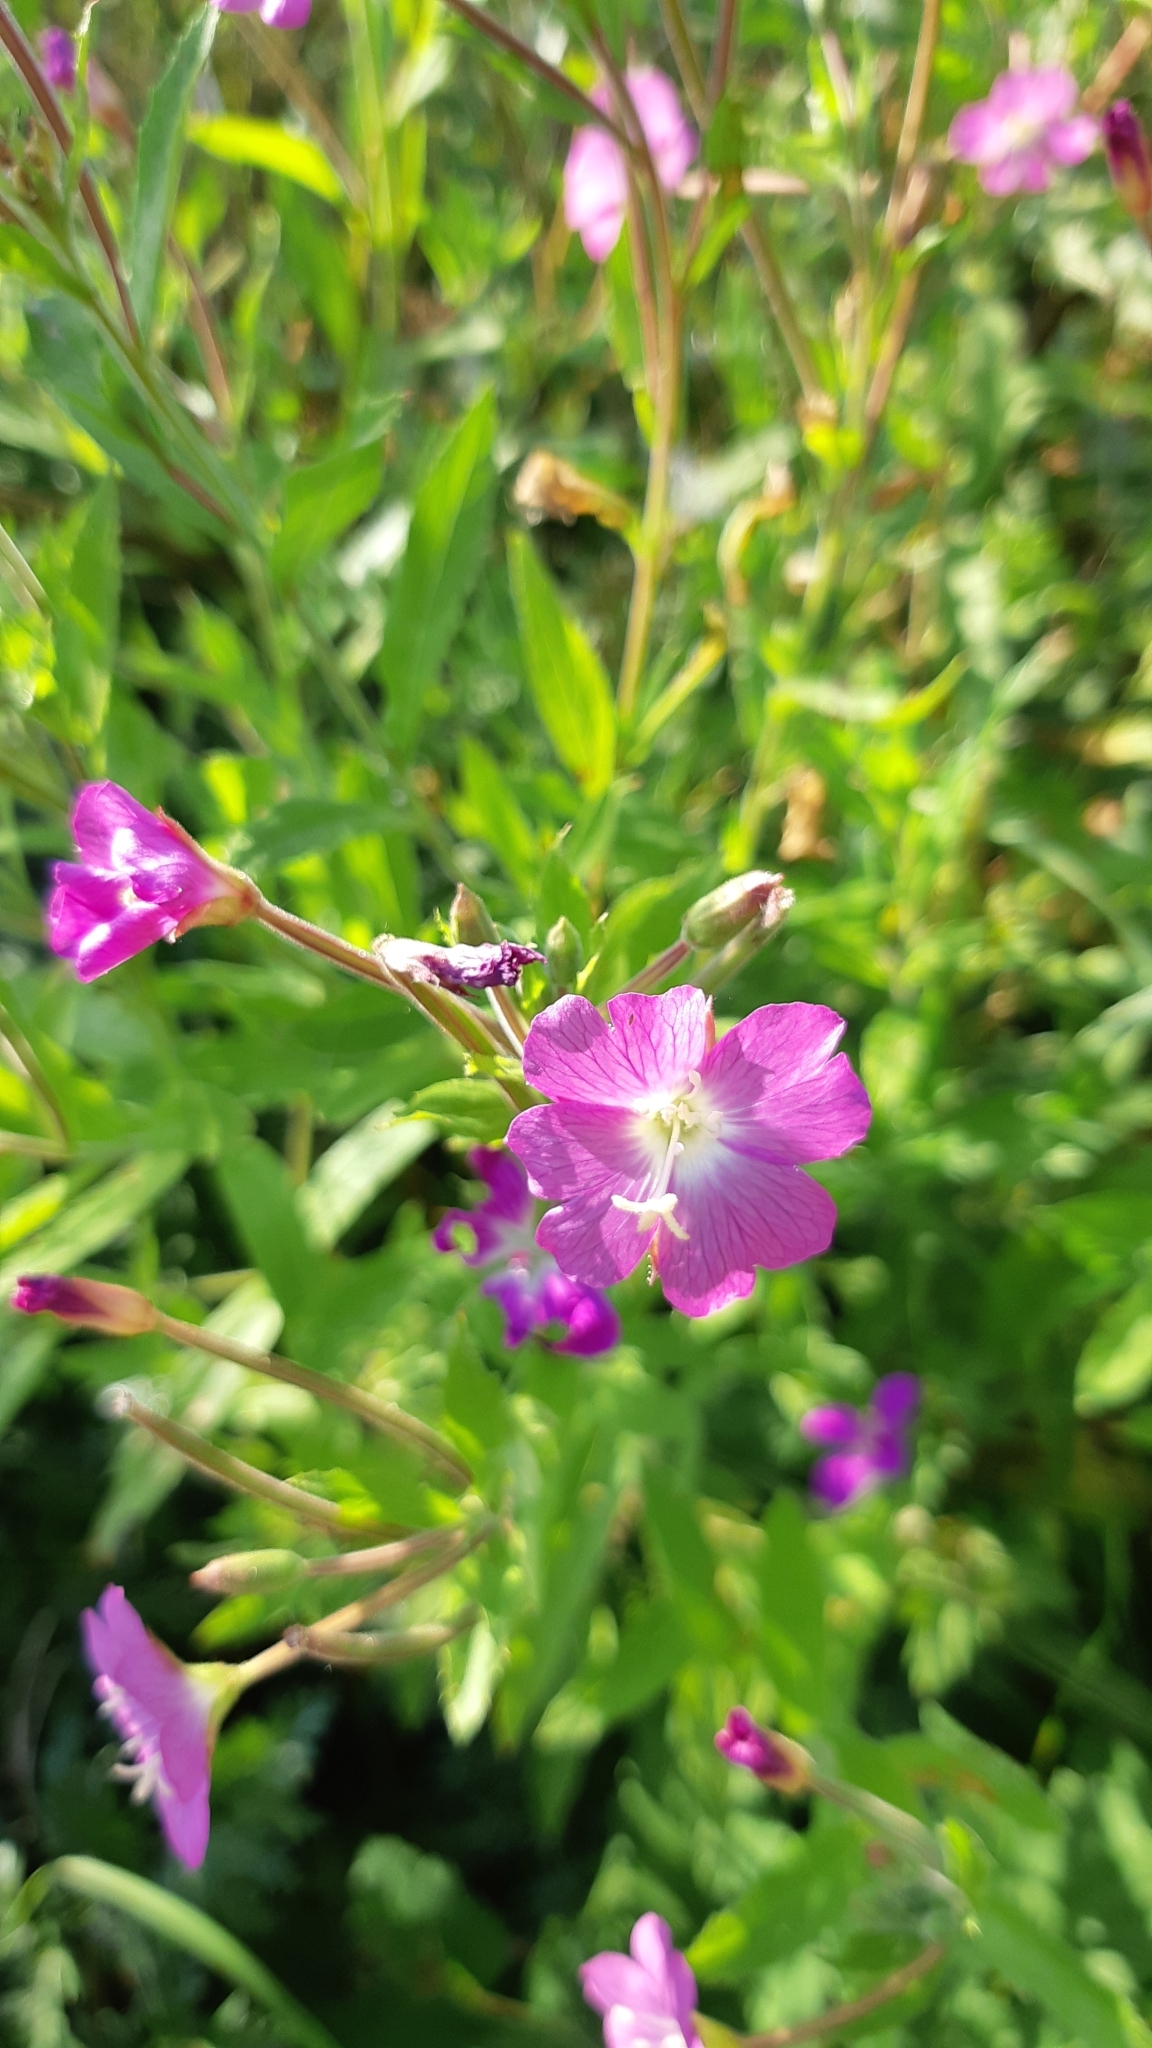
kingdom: Plantae
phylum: Tracheophyta
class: Magnoliopsida
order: Myrtales
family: Onagraceae
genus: Epilobium
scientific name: Epilobium hirsutum
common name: Great willowherb
